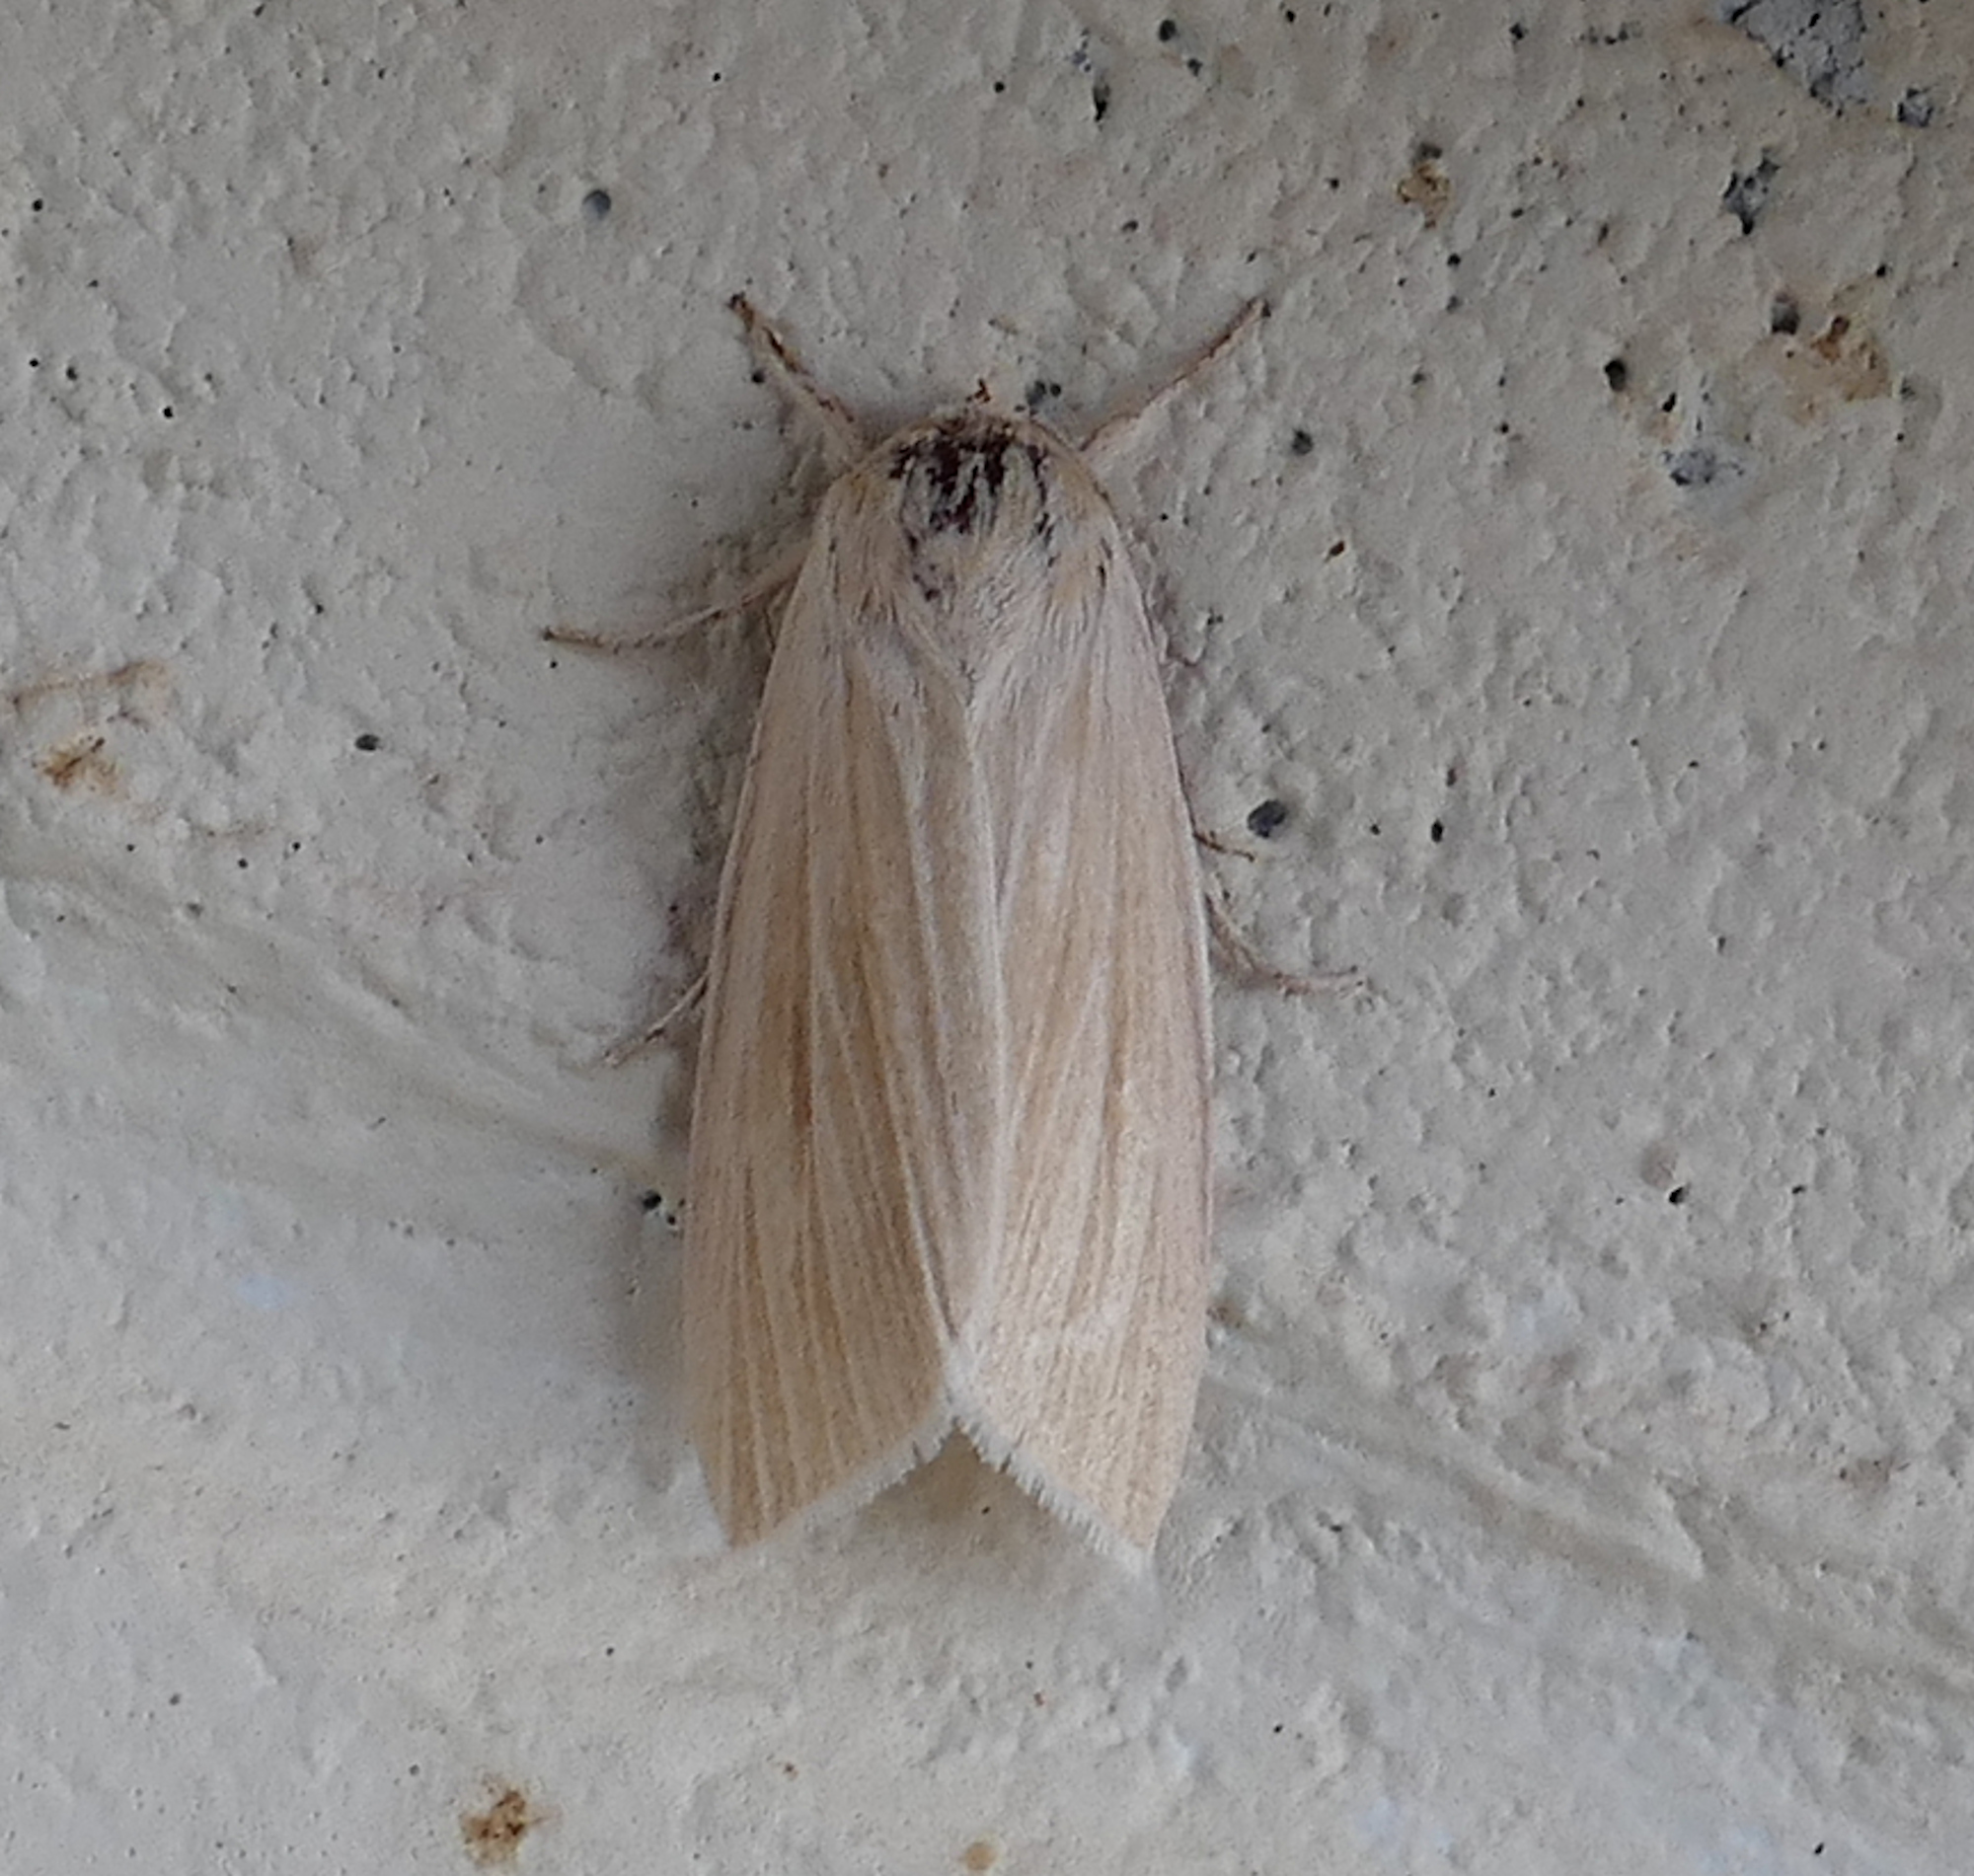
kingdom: Animalia
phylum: Arthropoda
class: Insecta
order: Lepidoptera
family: Noctuidae
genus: Acronicta
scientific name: Acronicta insularis
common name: Henry's marsh moth
